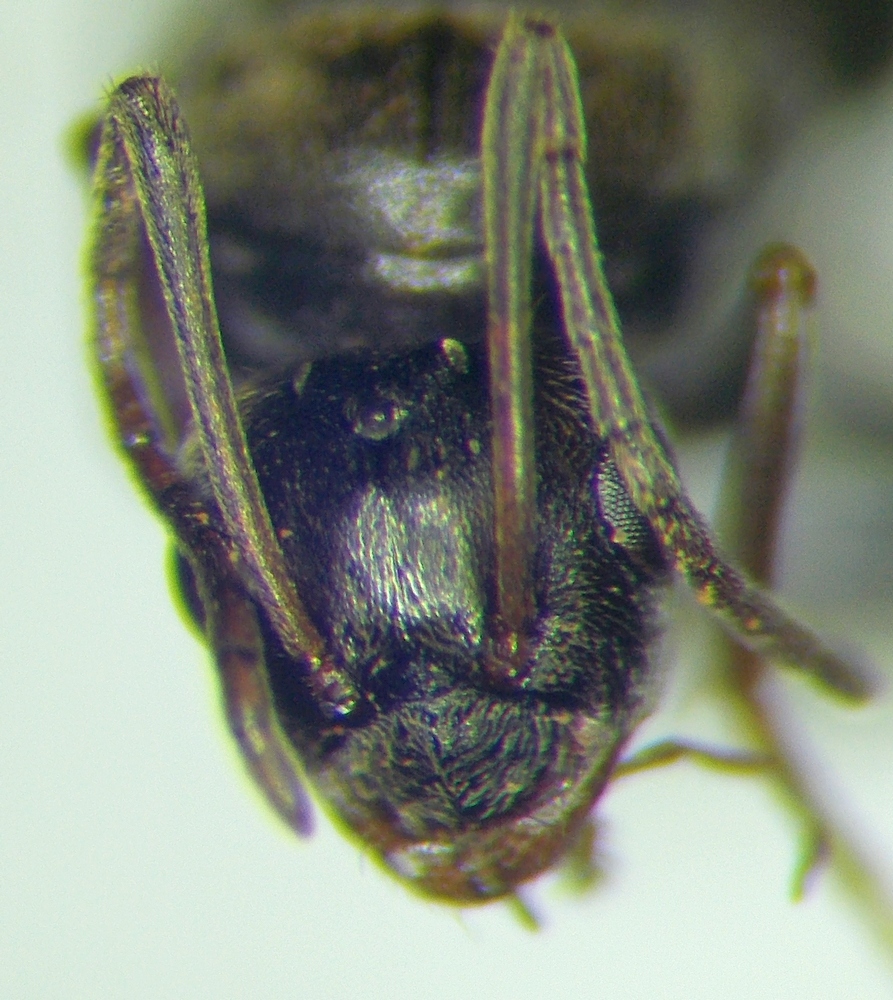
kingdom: Animalia
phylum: Arthropoda
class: Insecta
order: Hymenoptera
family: Formicidae
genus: Lepisiota
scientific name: Lepisiota frauenfeldi
